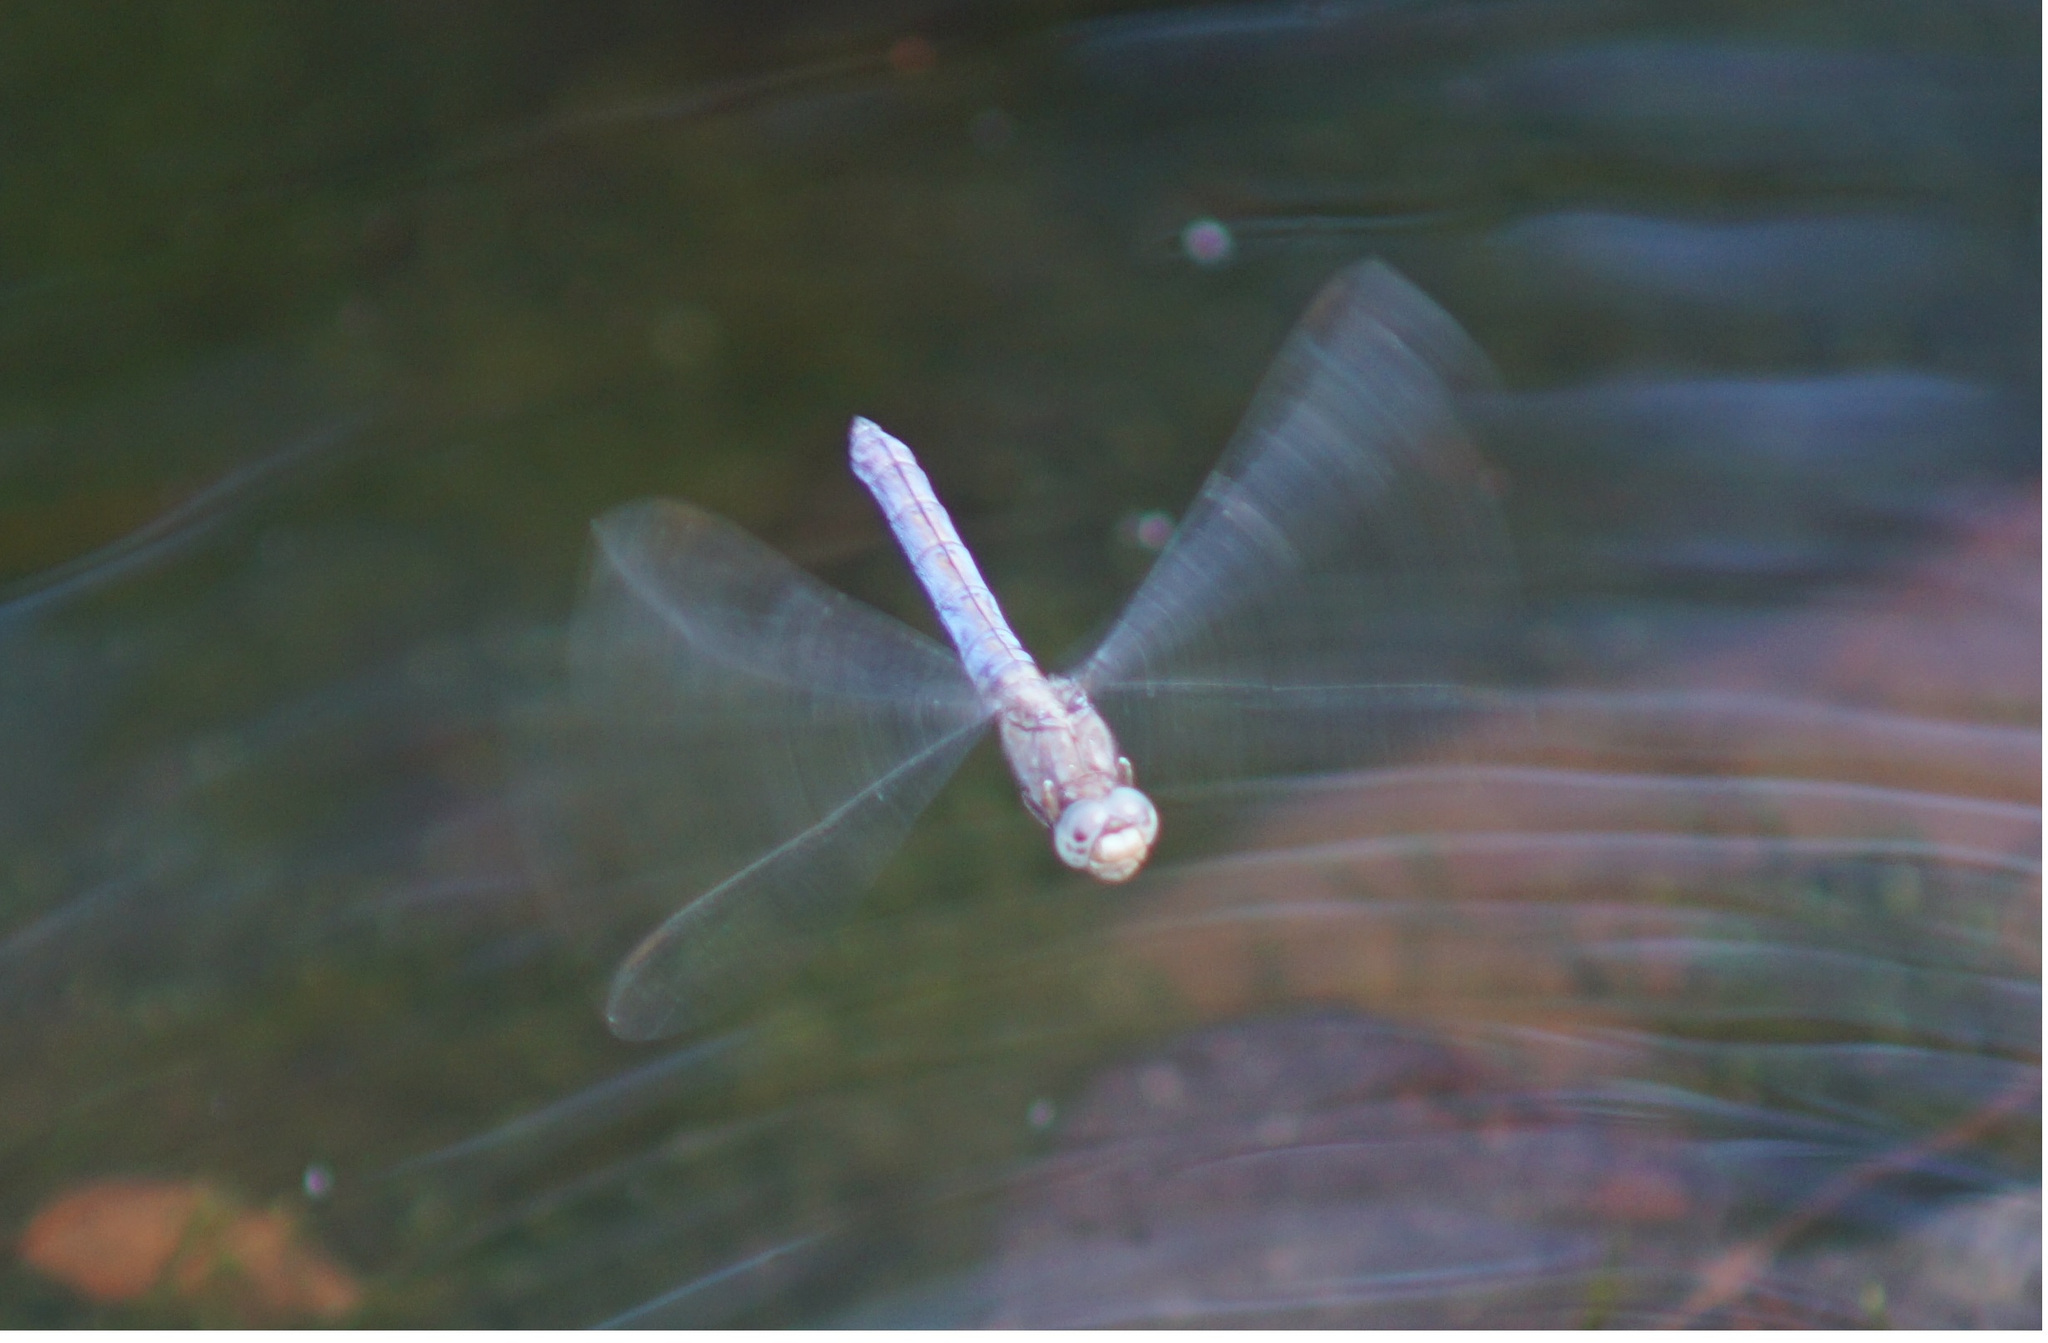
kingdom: Animalia
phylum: Arthropoda
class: Insecta
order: Odonata
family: Libellulidae
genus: Orthetrum
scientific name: Orthetrum coerulescens
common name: Keeled skimmer
